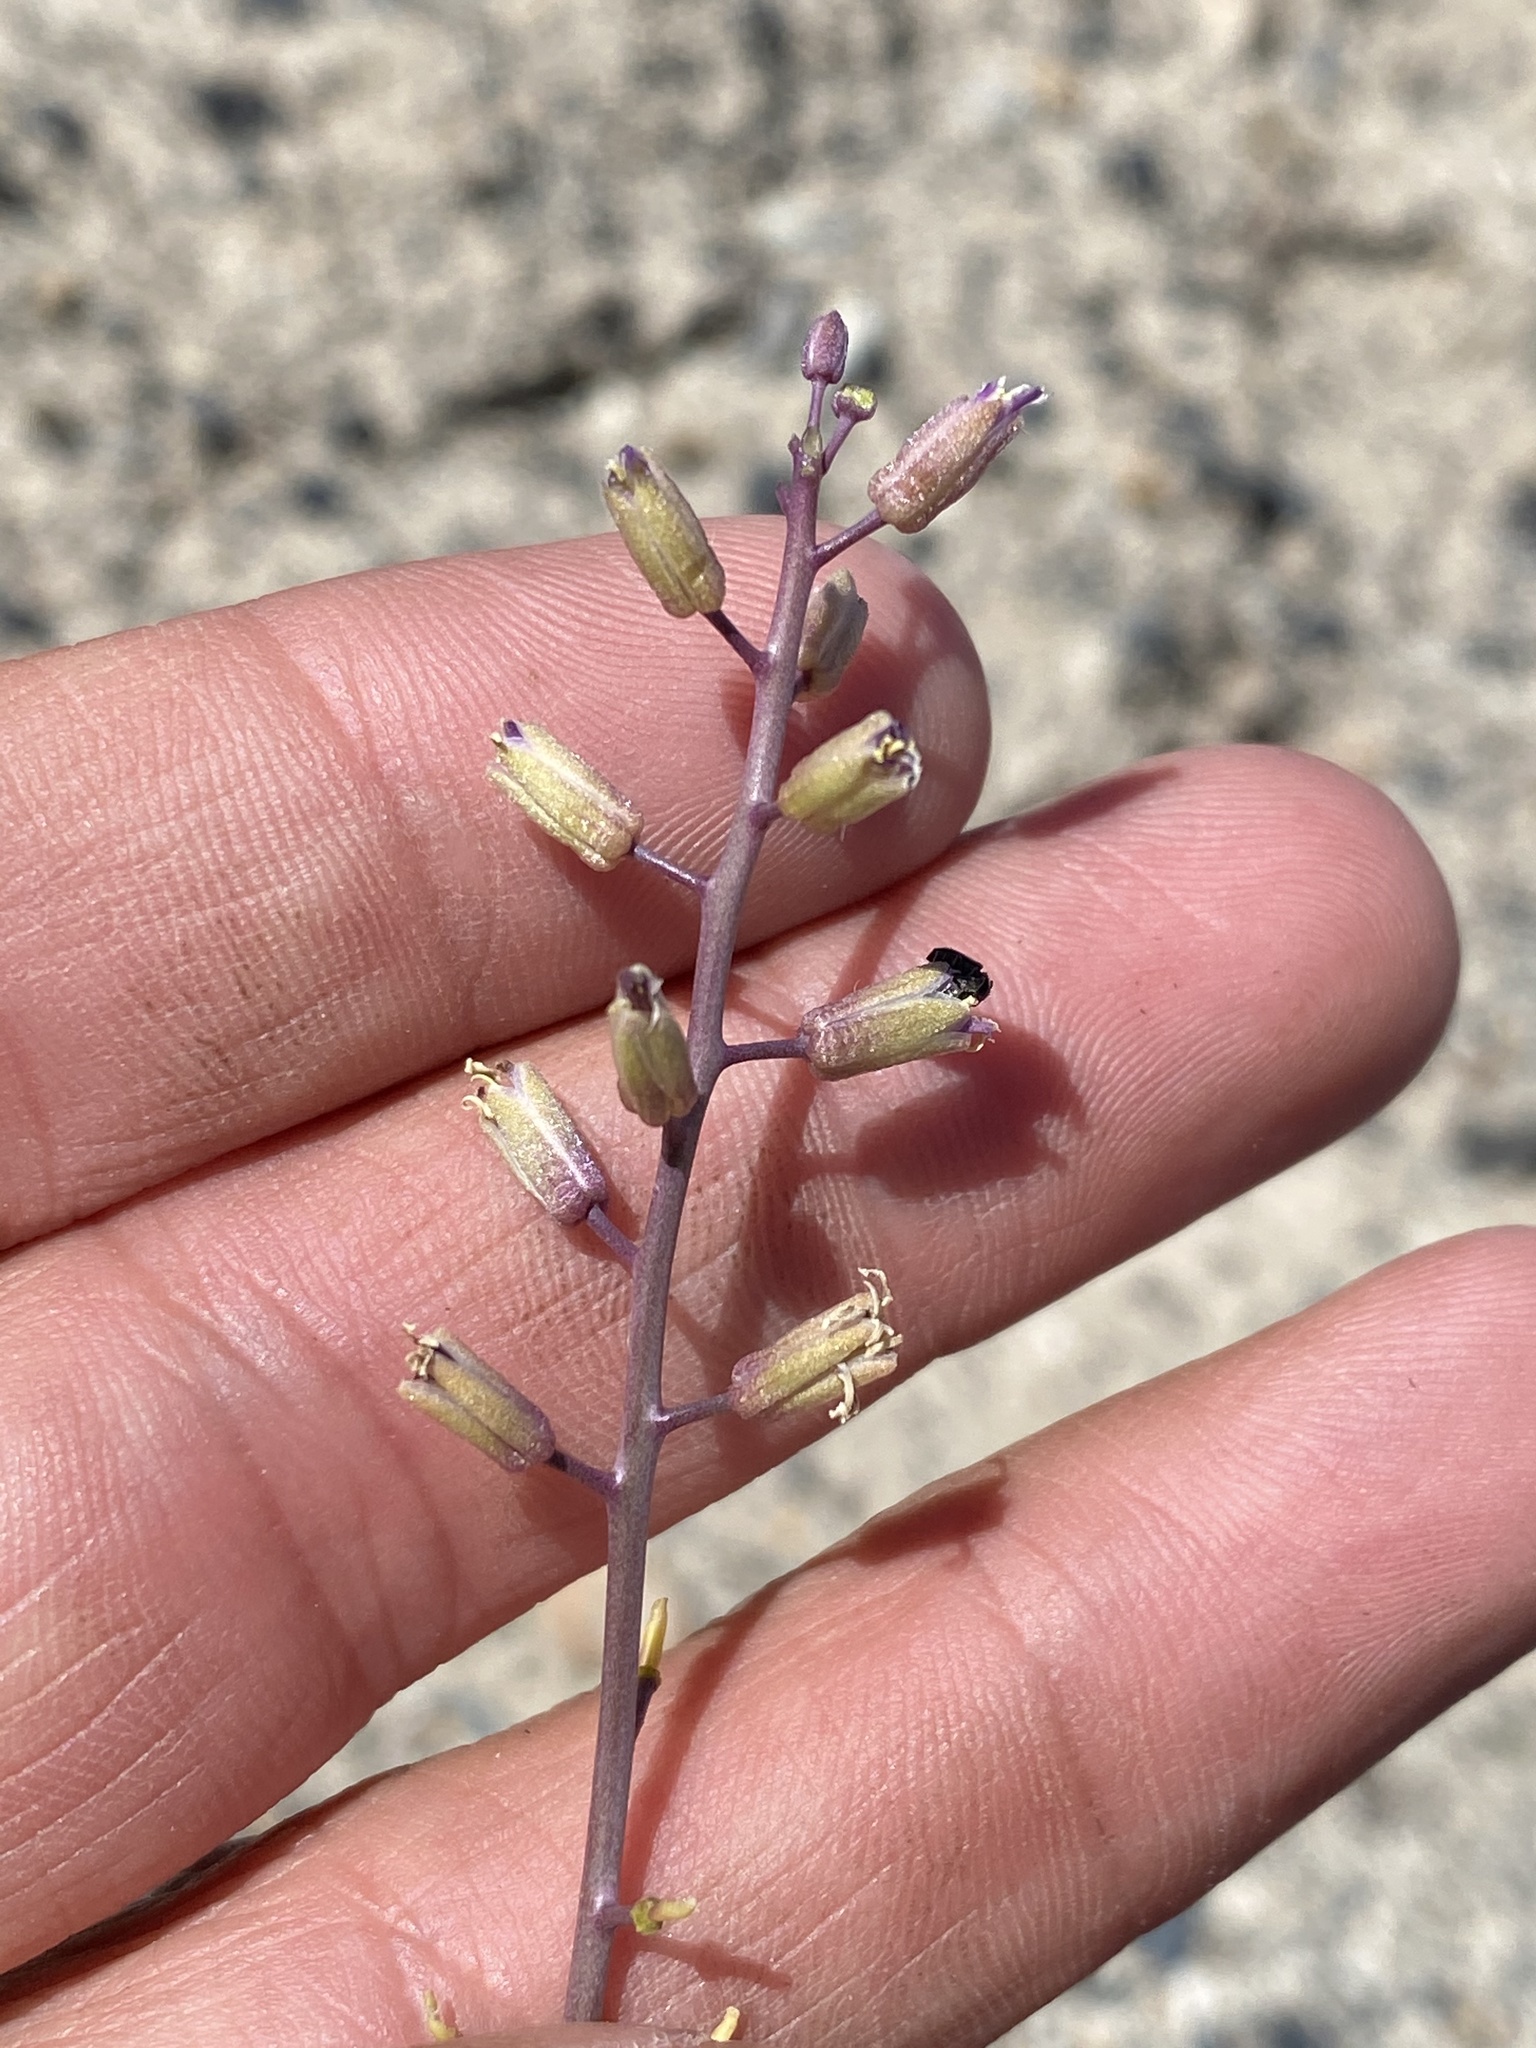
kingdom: Plantae
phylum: Tracheophyta
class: Magnoliopsida
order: Brassicales
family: Brassicaceae
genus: Streptanthus
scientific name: Streptanthus pilosus
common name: Chocolate drops
